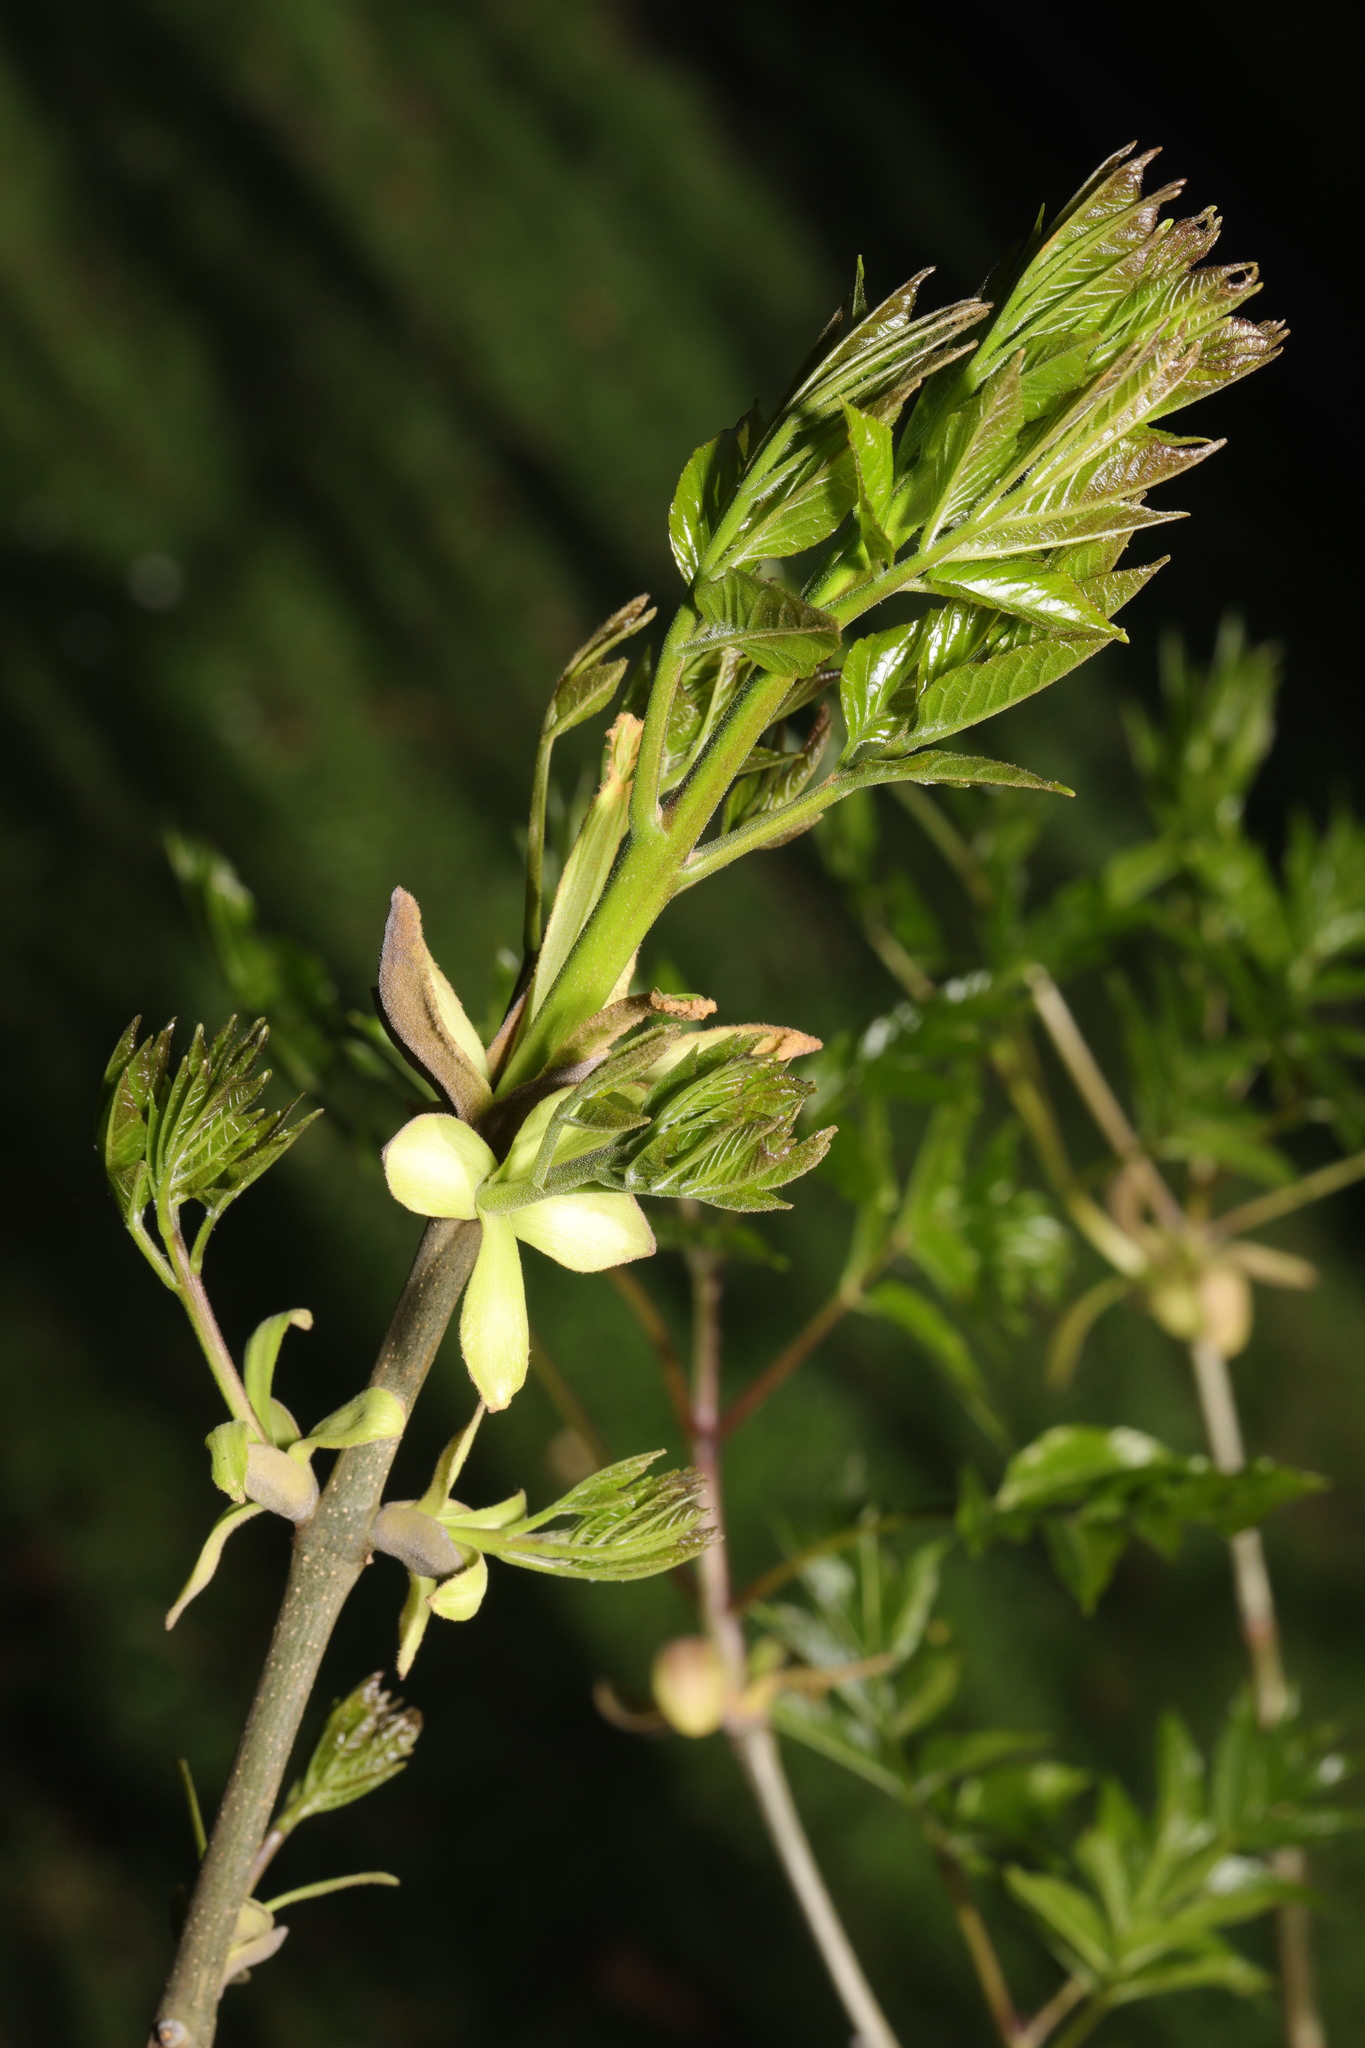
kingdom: Plantae
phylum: Tracheophyta
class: Magnoliopsida
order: Lamiales
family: Oleaceae
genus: Fraxinus
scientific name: Fraxinus excelsior
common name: European ash
